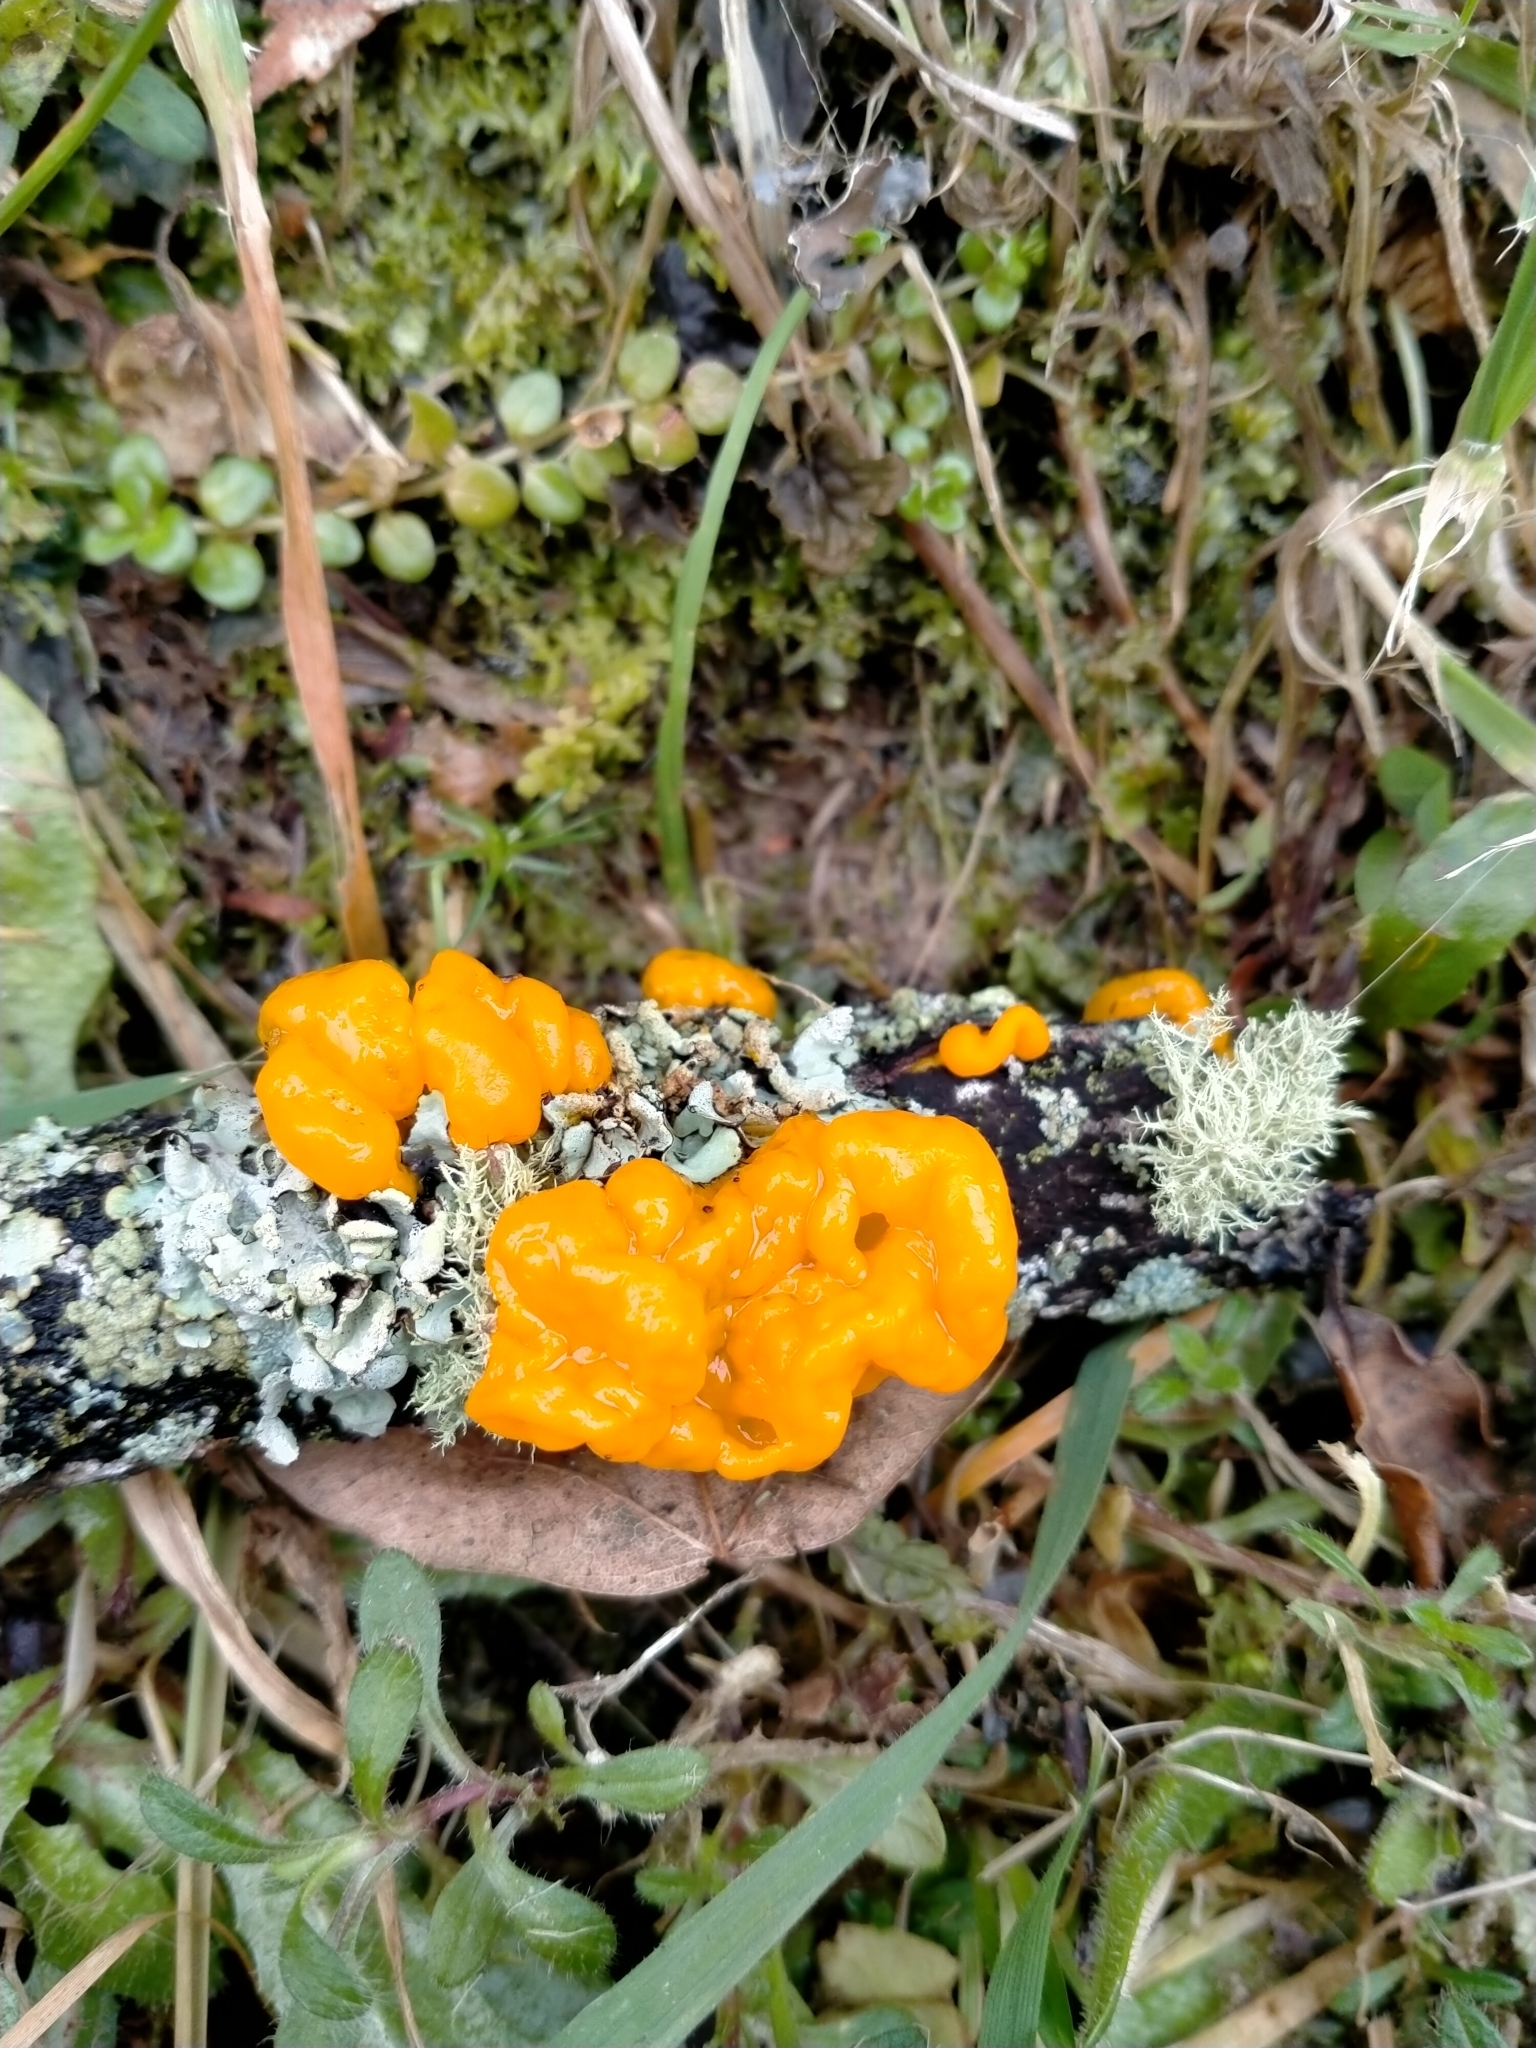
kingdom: Fungi
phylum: Basidiomycota
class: Tremellomycetes
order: Tremellales
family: Tremellaceae
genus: Tremella
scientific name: Tremella mesenterica
